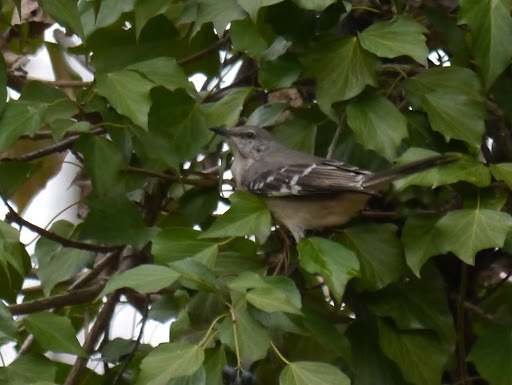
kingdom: Animalia
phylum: Chordata
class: Aves
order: Passeriformes
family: Mimidae
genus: Mimus
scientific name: Mimus polyglottos
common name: Northern mockingbird
